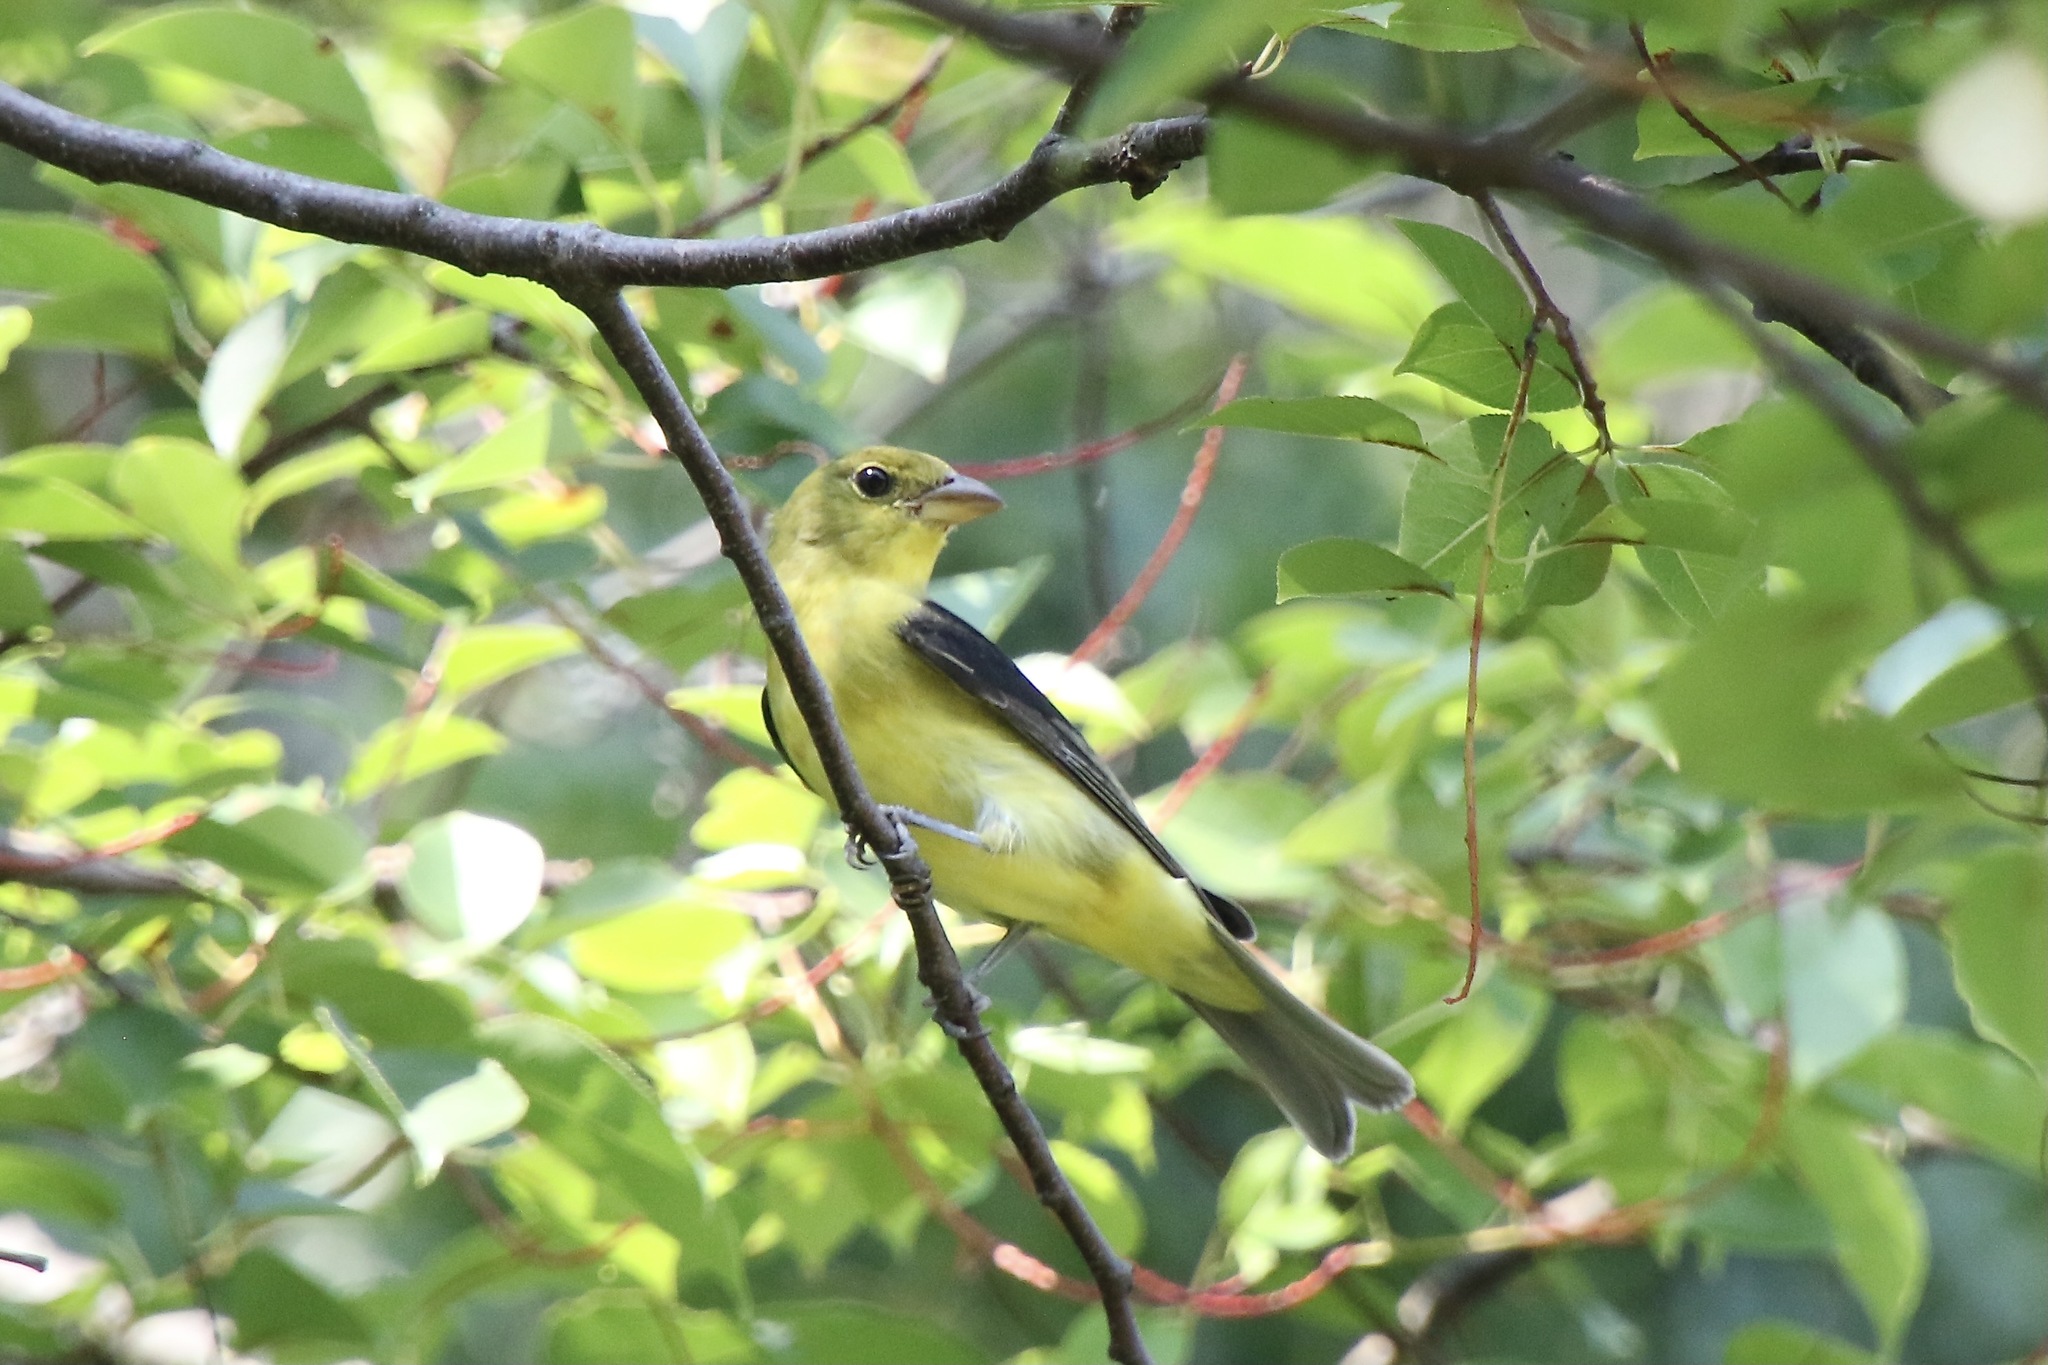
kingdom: Animalia
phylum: Chordata
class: Aves
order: Passeriformes
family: Cardinalidae
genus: Piranga
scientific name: Piranga olivacea
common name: Scarlet tanager
